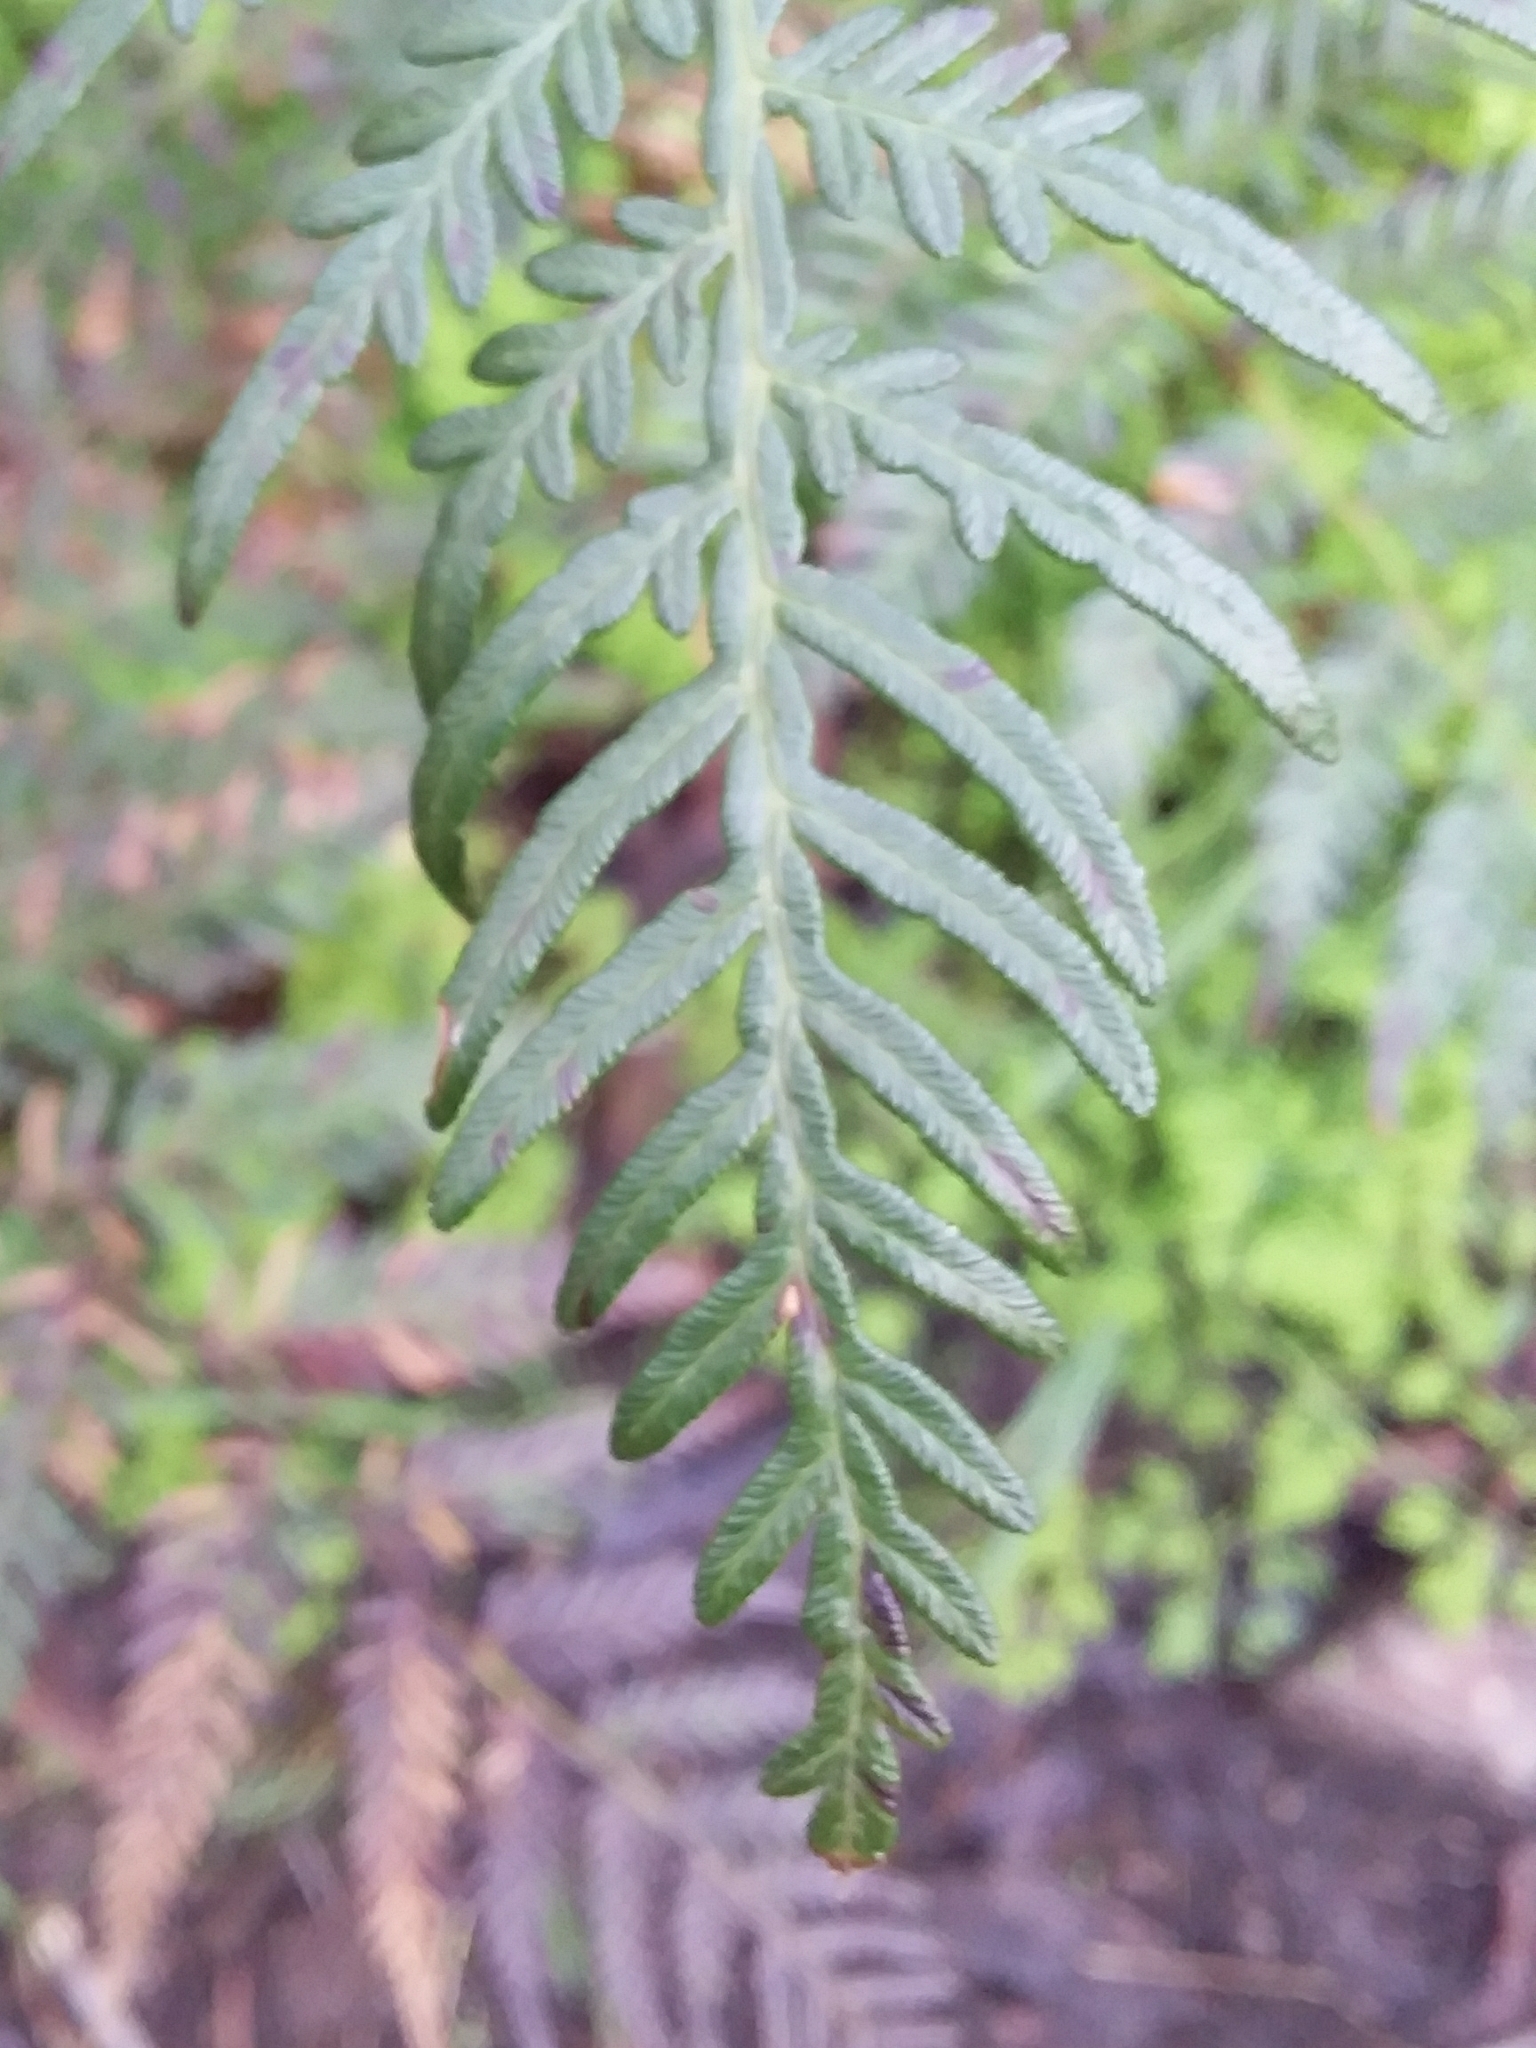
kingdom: Plantae
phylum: Tracheophyta
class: Polypodiopsida
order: Polypodiales
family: Dennstaedtiaceae
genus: Pteridium
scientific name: Pteridium esculentum
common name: Bracken fern
